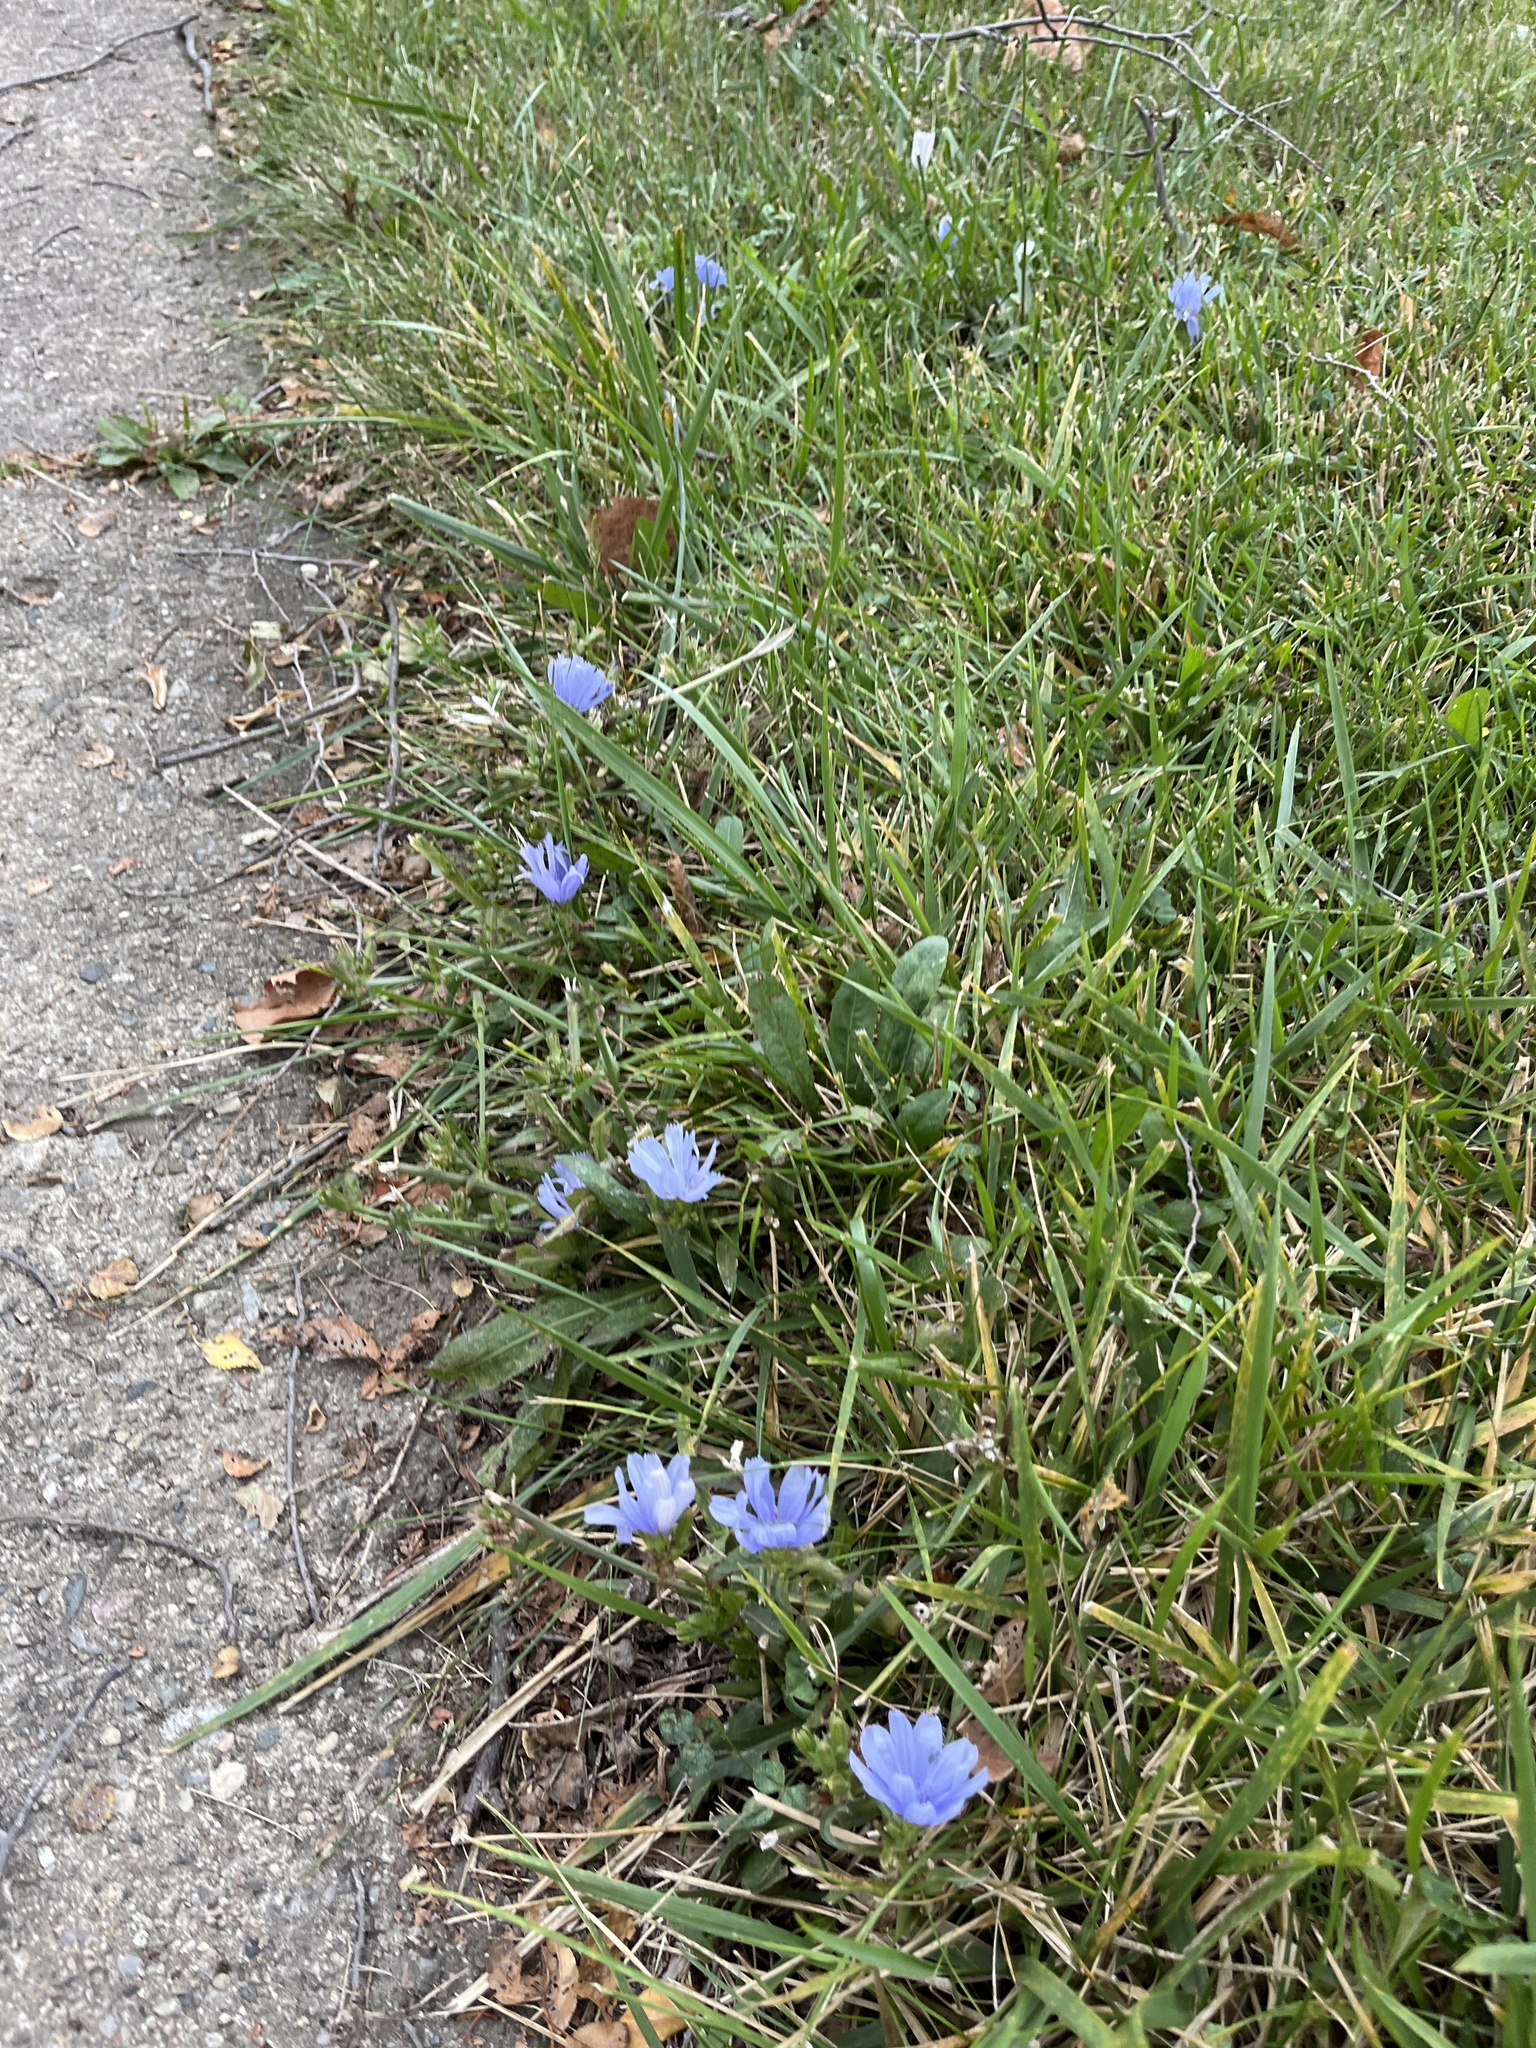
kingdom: Plantae
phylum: Tracheophyta
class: Magnoliopsida
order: Asterales
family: Asteraceae
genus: Cichorium
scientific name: Cichorium intybus
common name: Chicory
